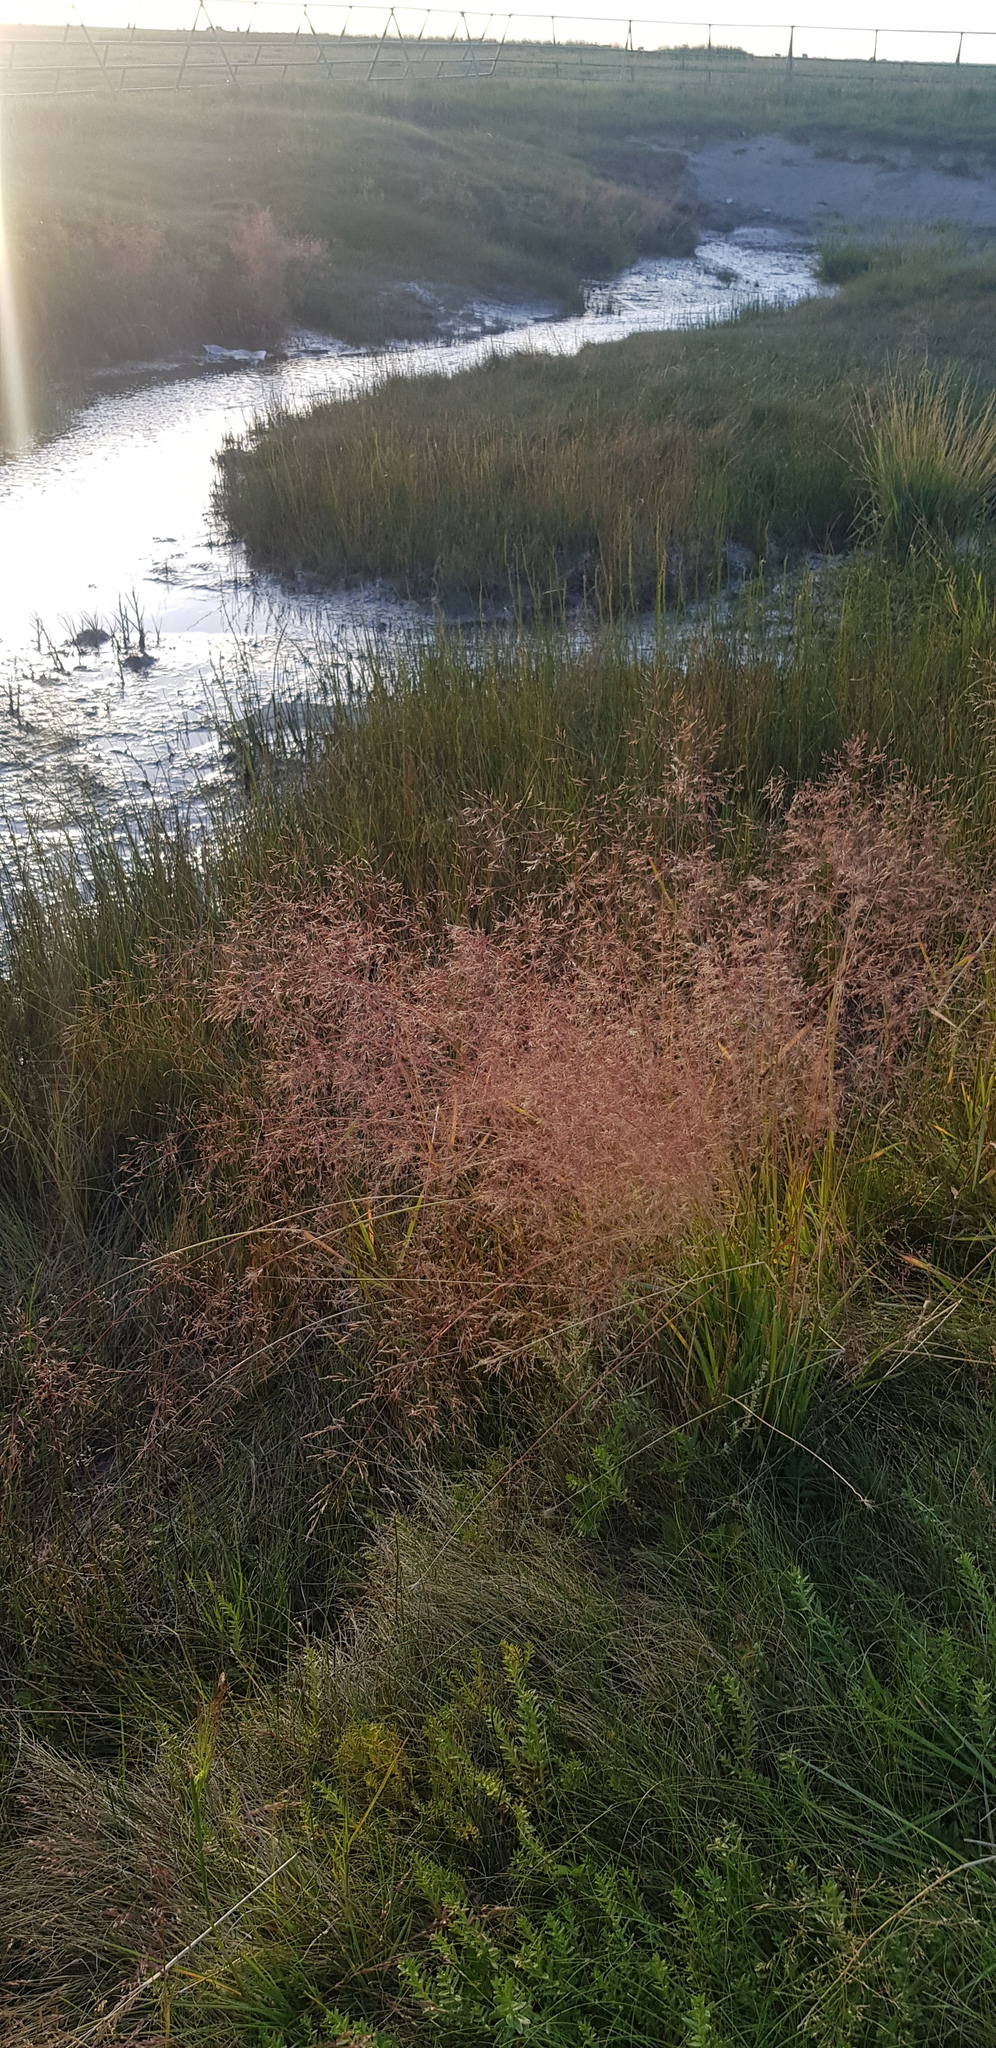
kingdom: Plantae
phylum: Tracheophyta
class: Liliopsida
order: Poales
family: Poaceae
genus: Agrostis
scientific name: Agrostis gigantea
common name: Black bent
